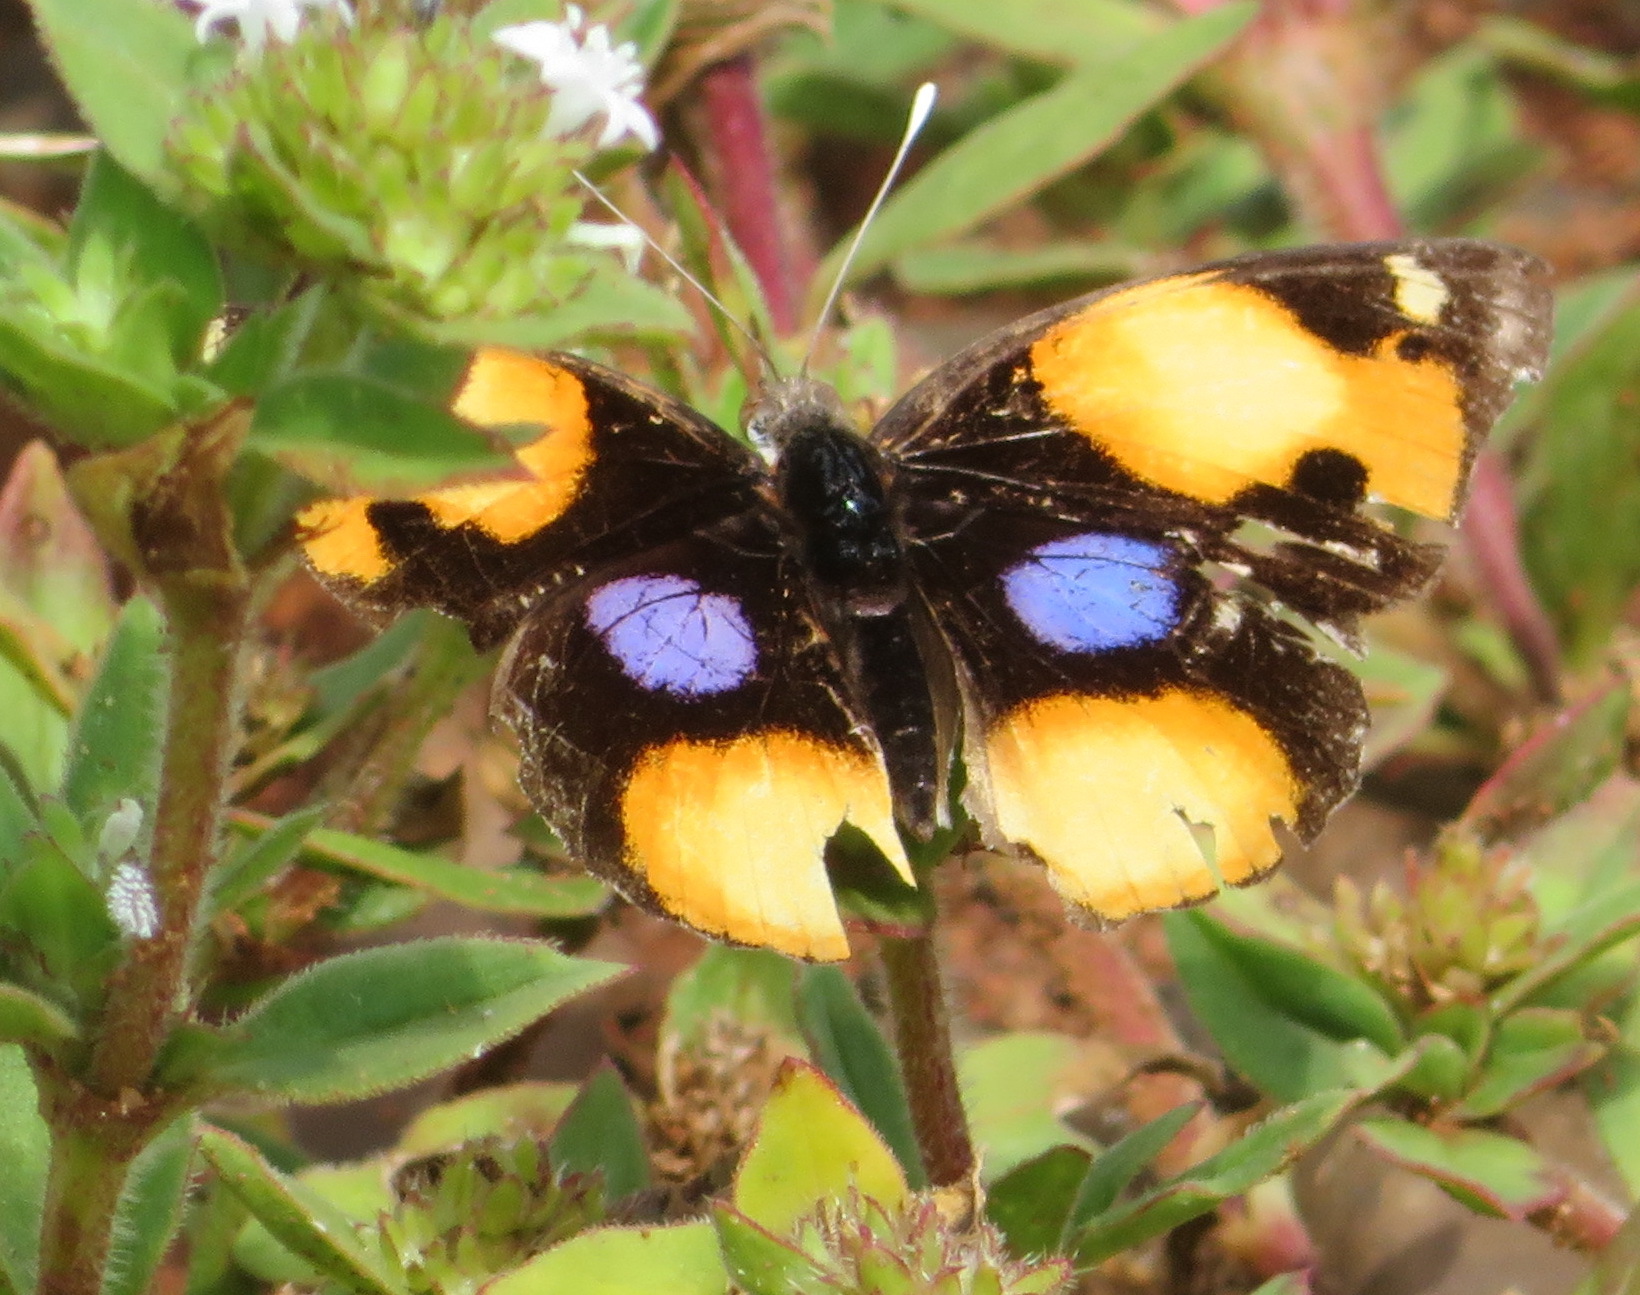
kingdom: Animalia
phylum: Arthropoda
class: Insecta
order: Lepidoptera
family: Nymphalidae
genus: Junonia
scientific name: Junonia hierta
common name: Yellow pansy
